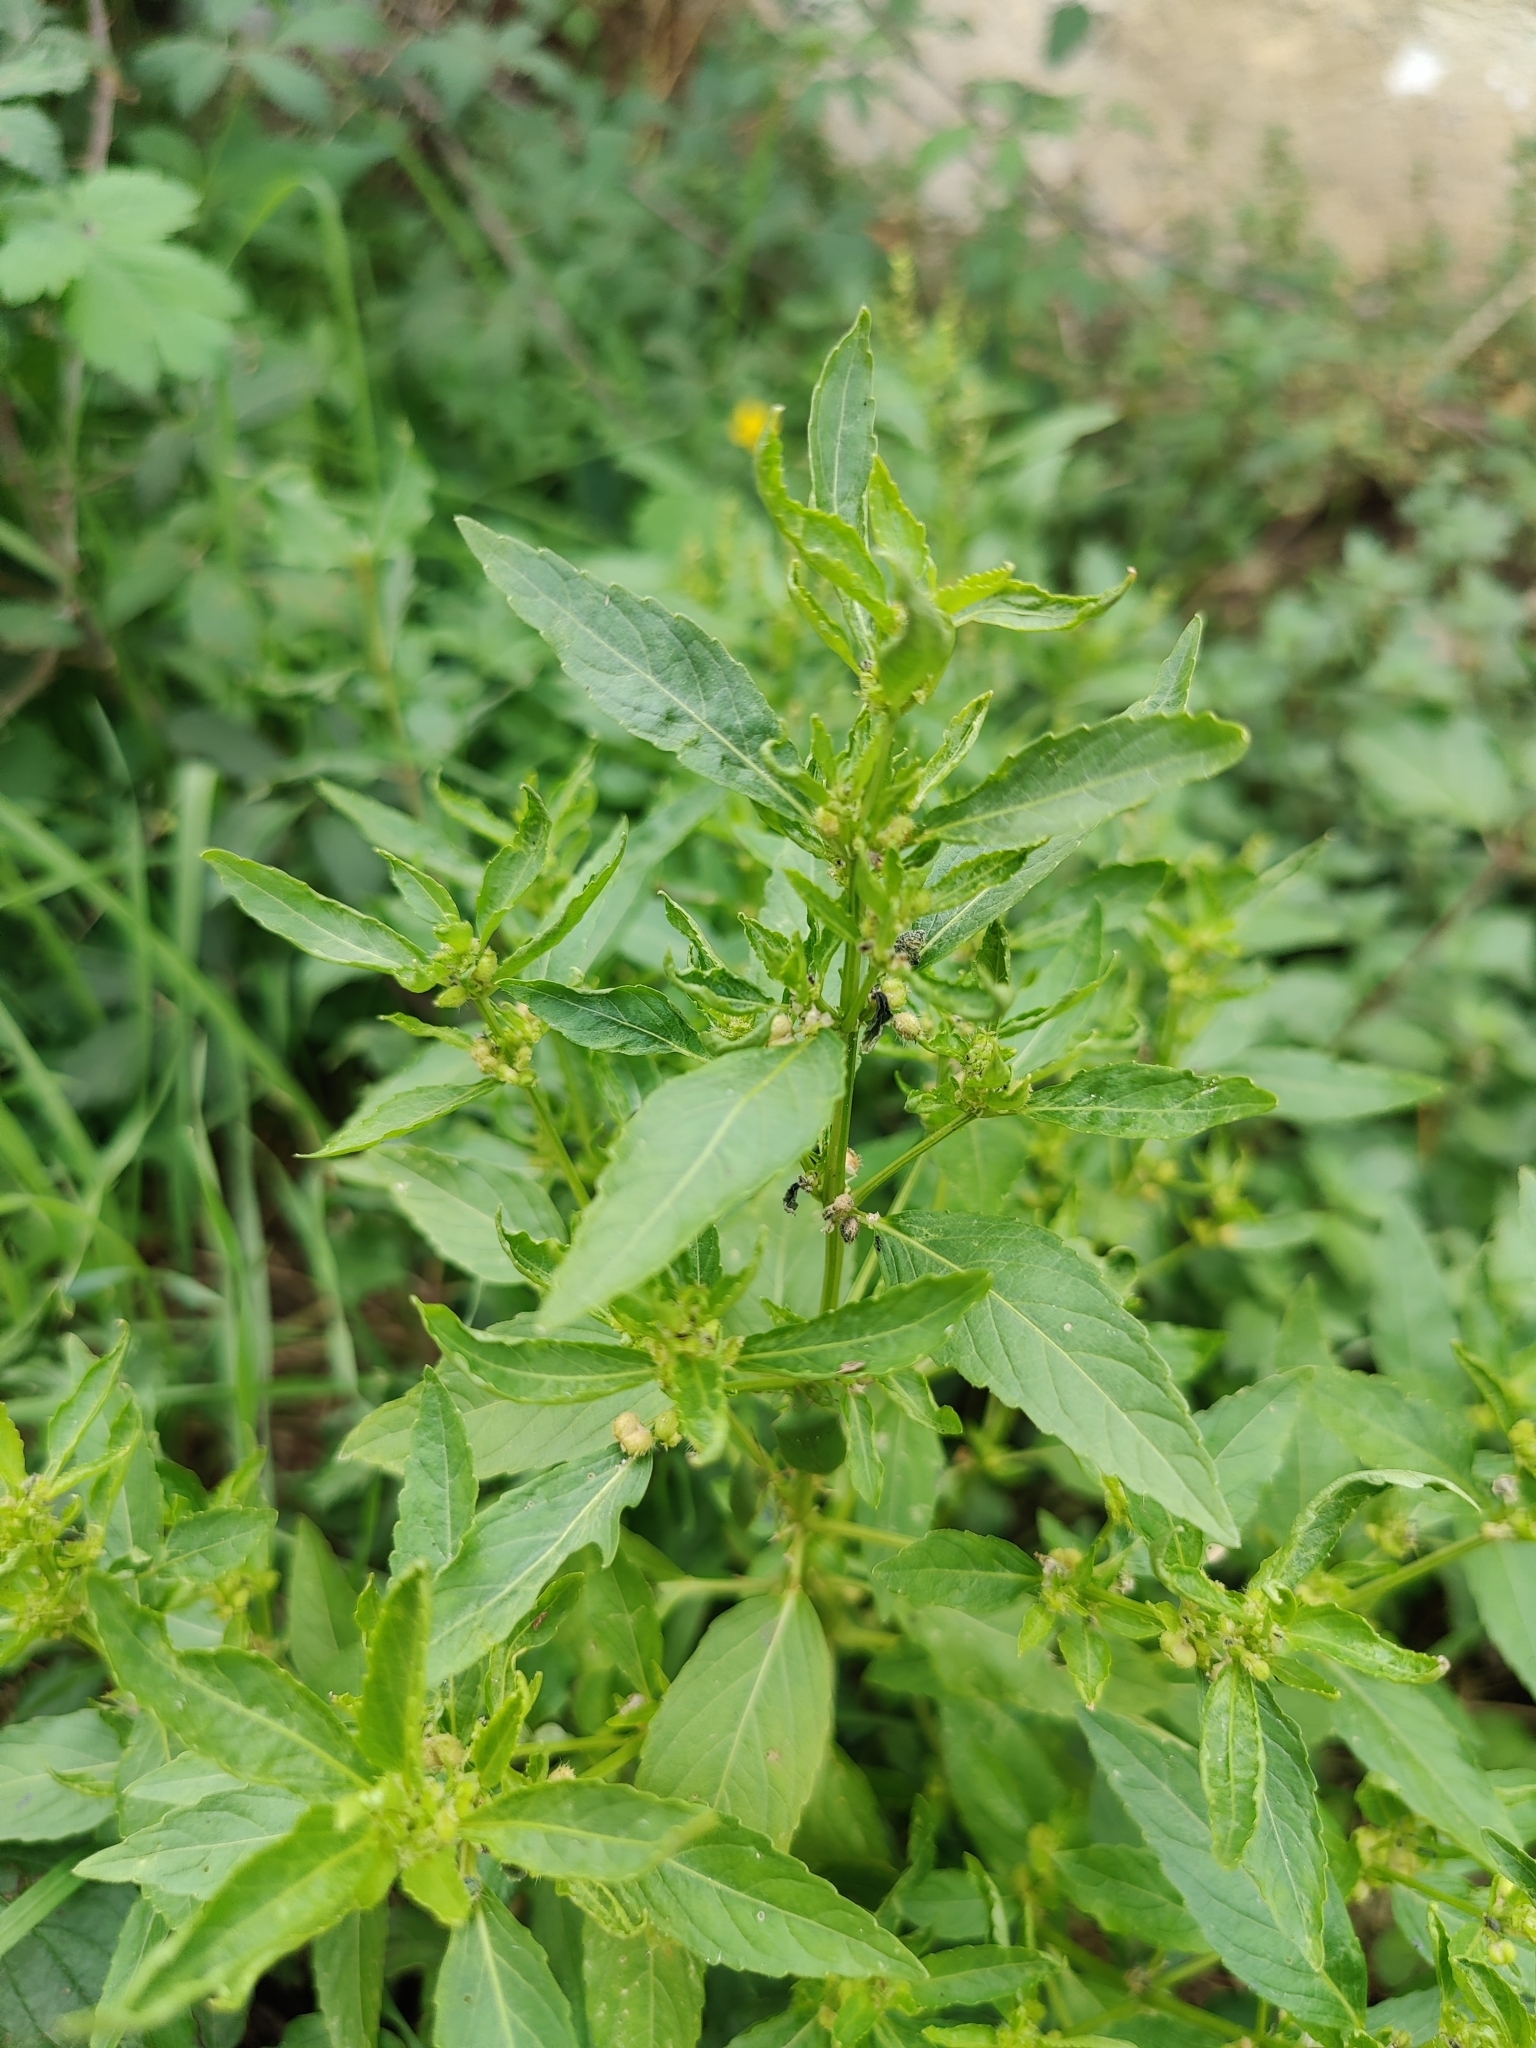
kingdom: Plantae
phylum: Tracheophyta
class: Magnoliopsida
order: Malpighiales
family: Euphorbiaceae
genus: Mercurialis
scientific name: Mercurialis annua
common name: Annual mercury
